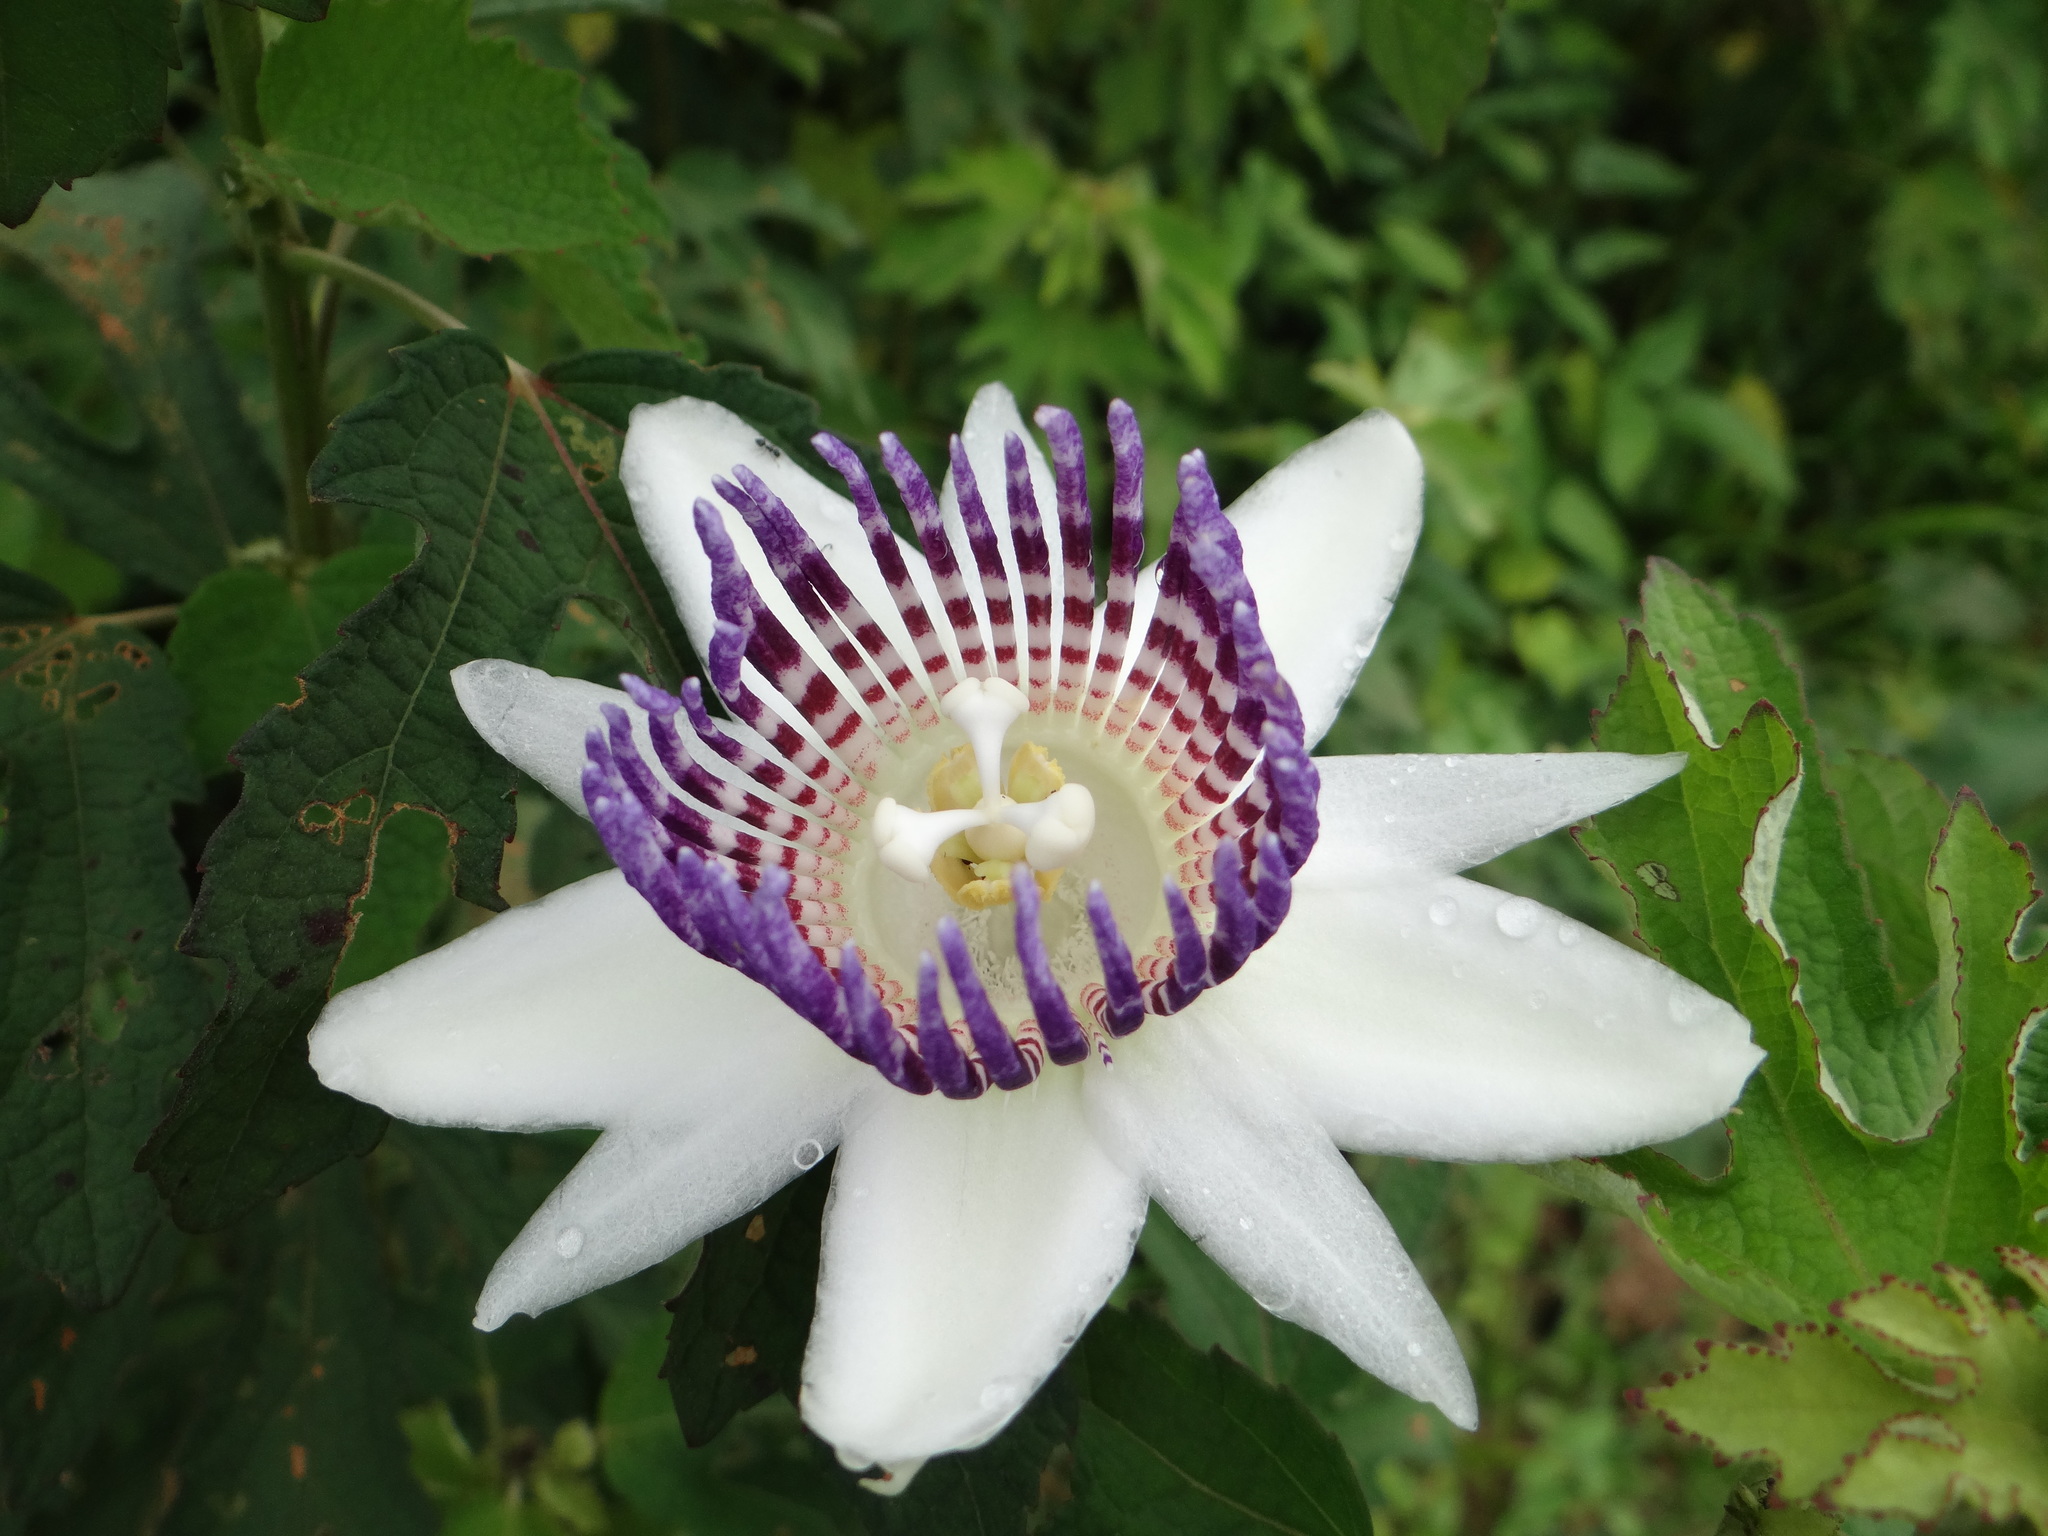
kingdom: Plantae
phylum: Tracheophyta
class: Magnoliopsida
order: Malpighiales
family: Passifloraceae
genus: Passiflora
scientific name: Passiflora riparia
